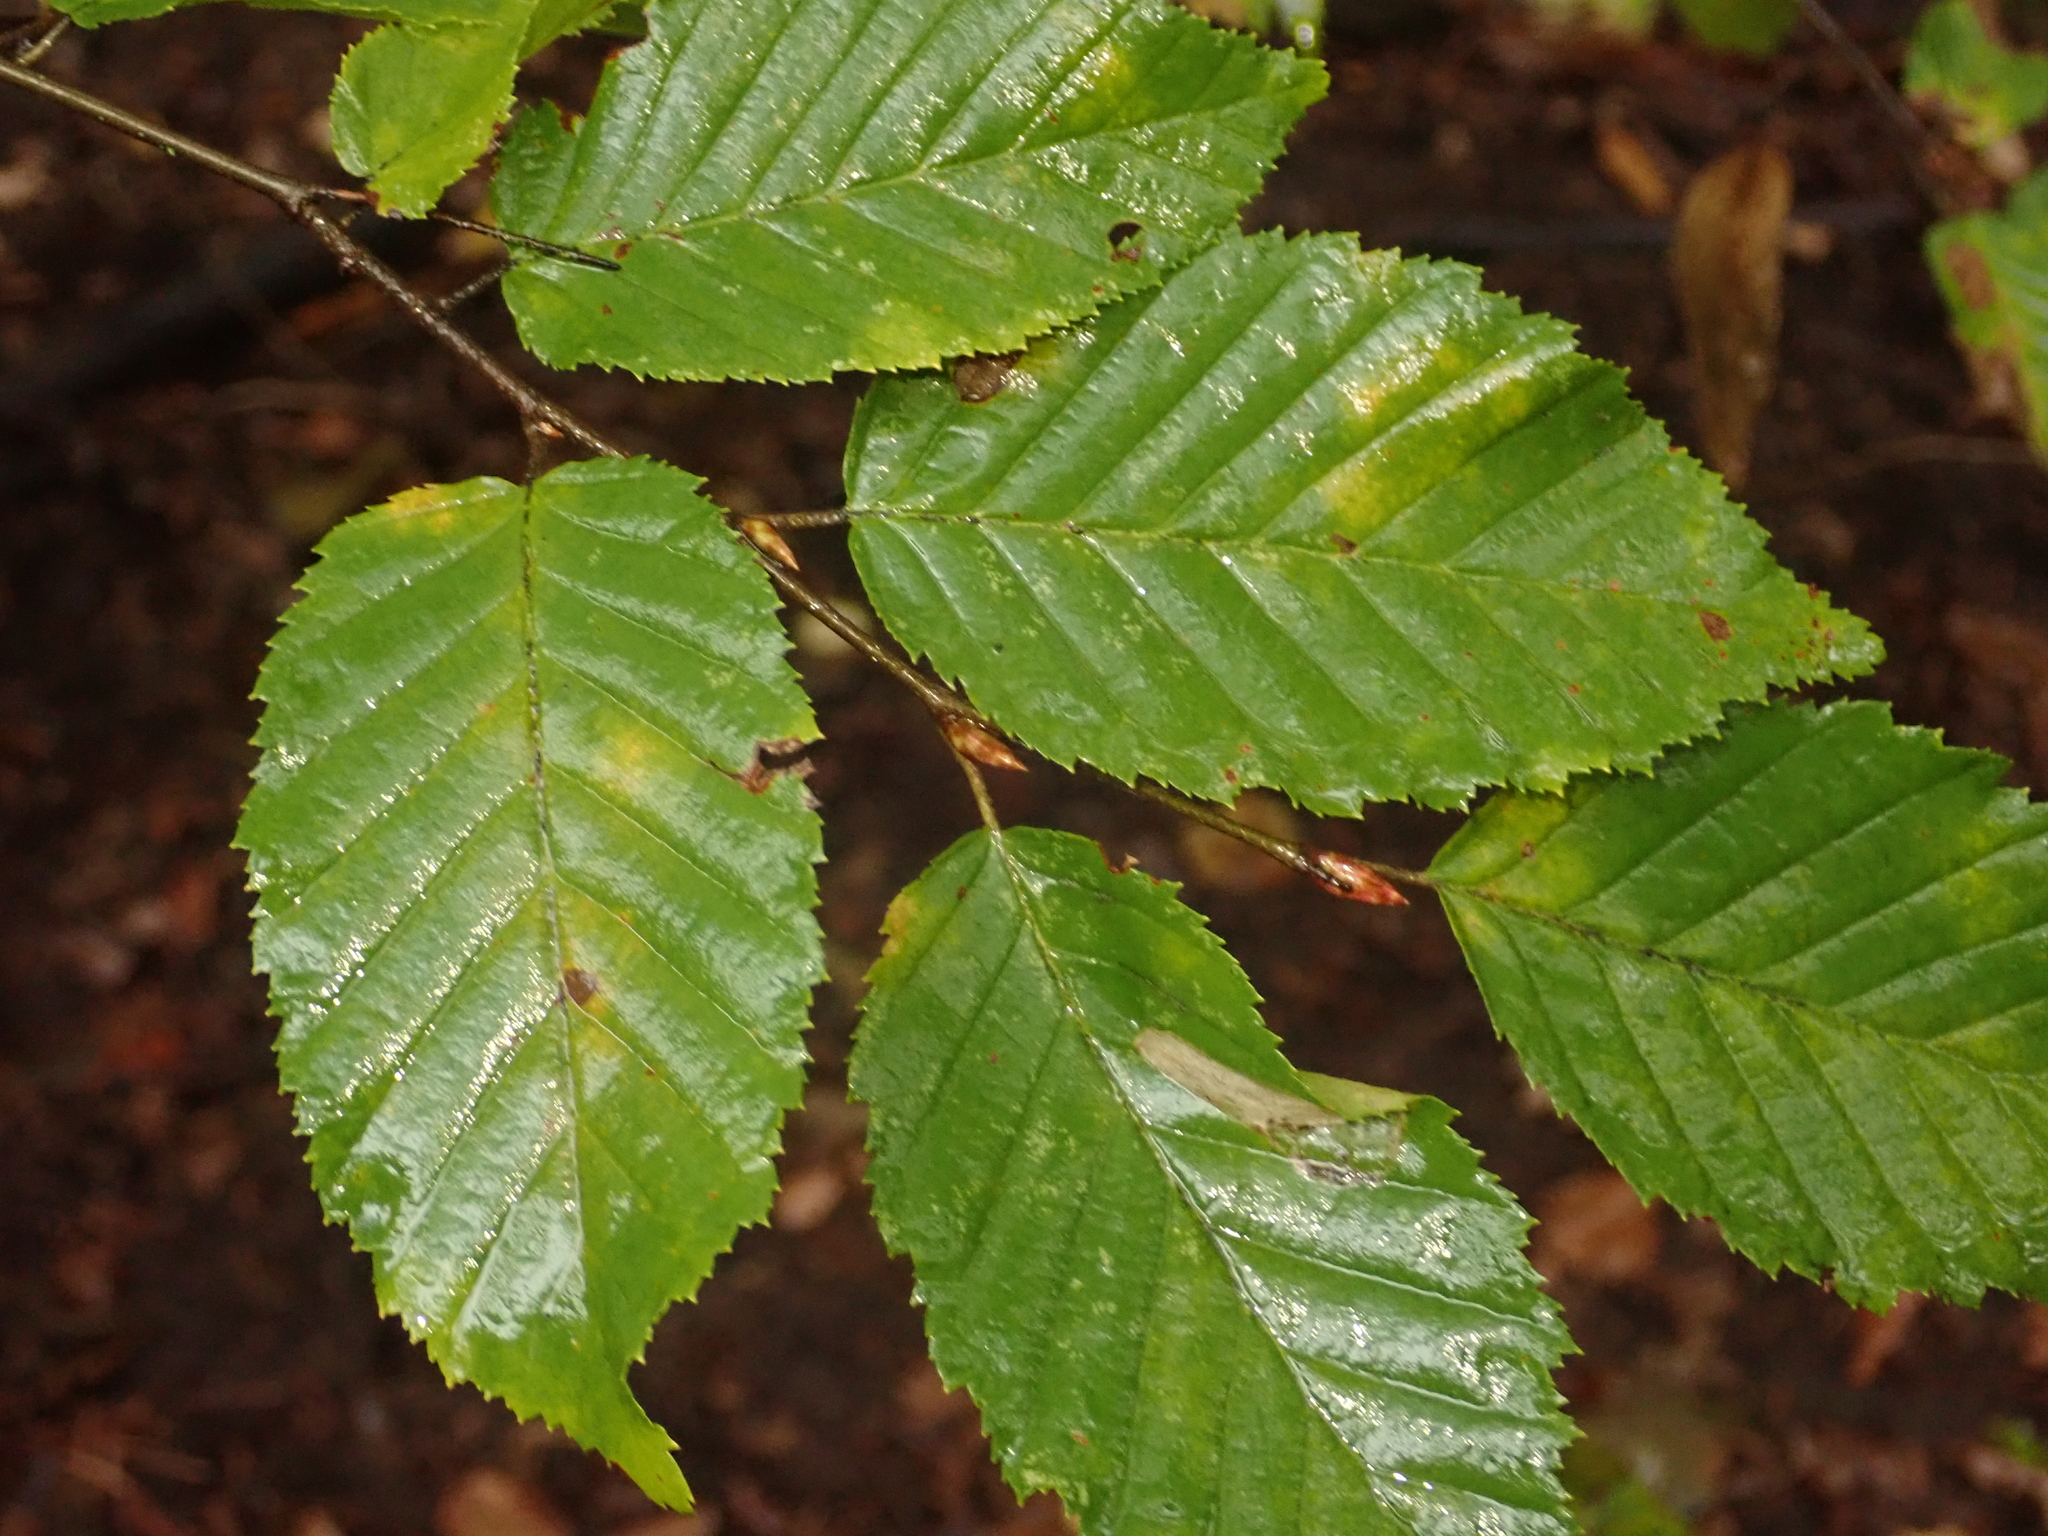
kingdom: Plantae
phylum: Tracheophyta
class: Magnoliopsida
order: Fagales
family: Betulaceae
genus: Carpinus
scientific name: Carpinus betulus
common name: Hornbeam
